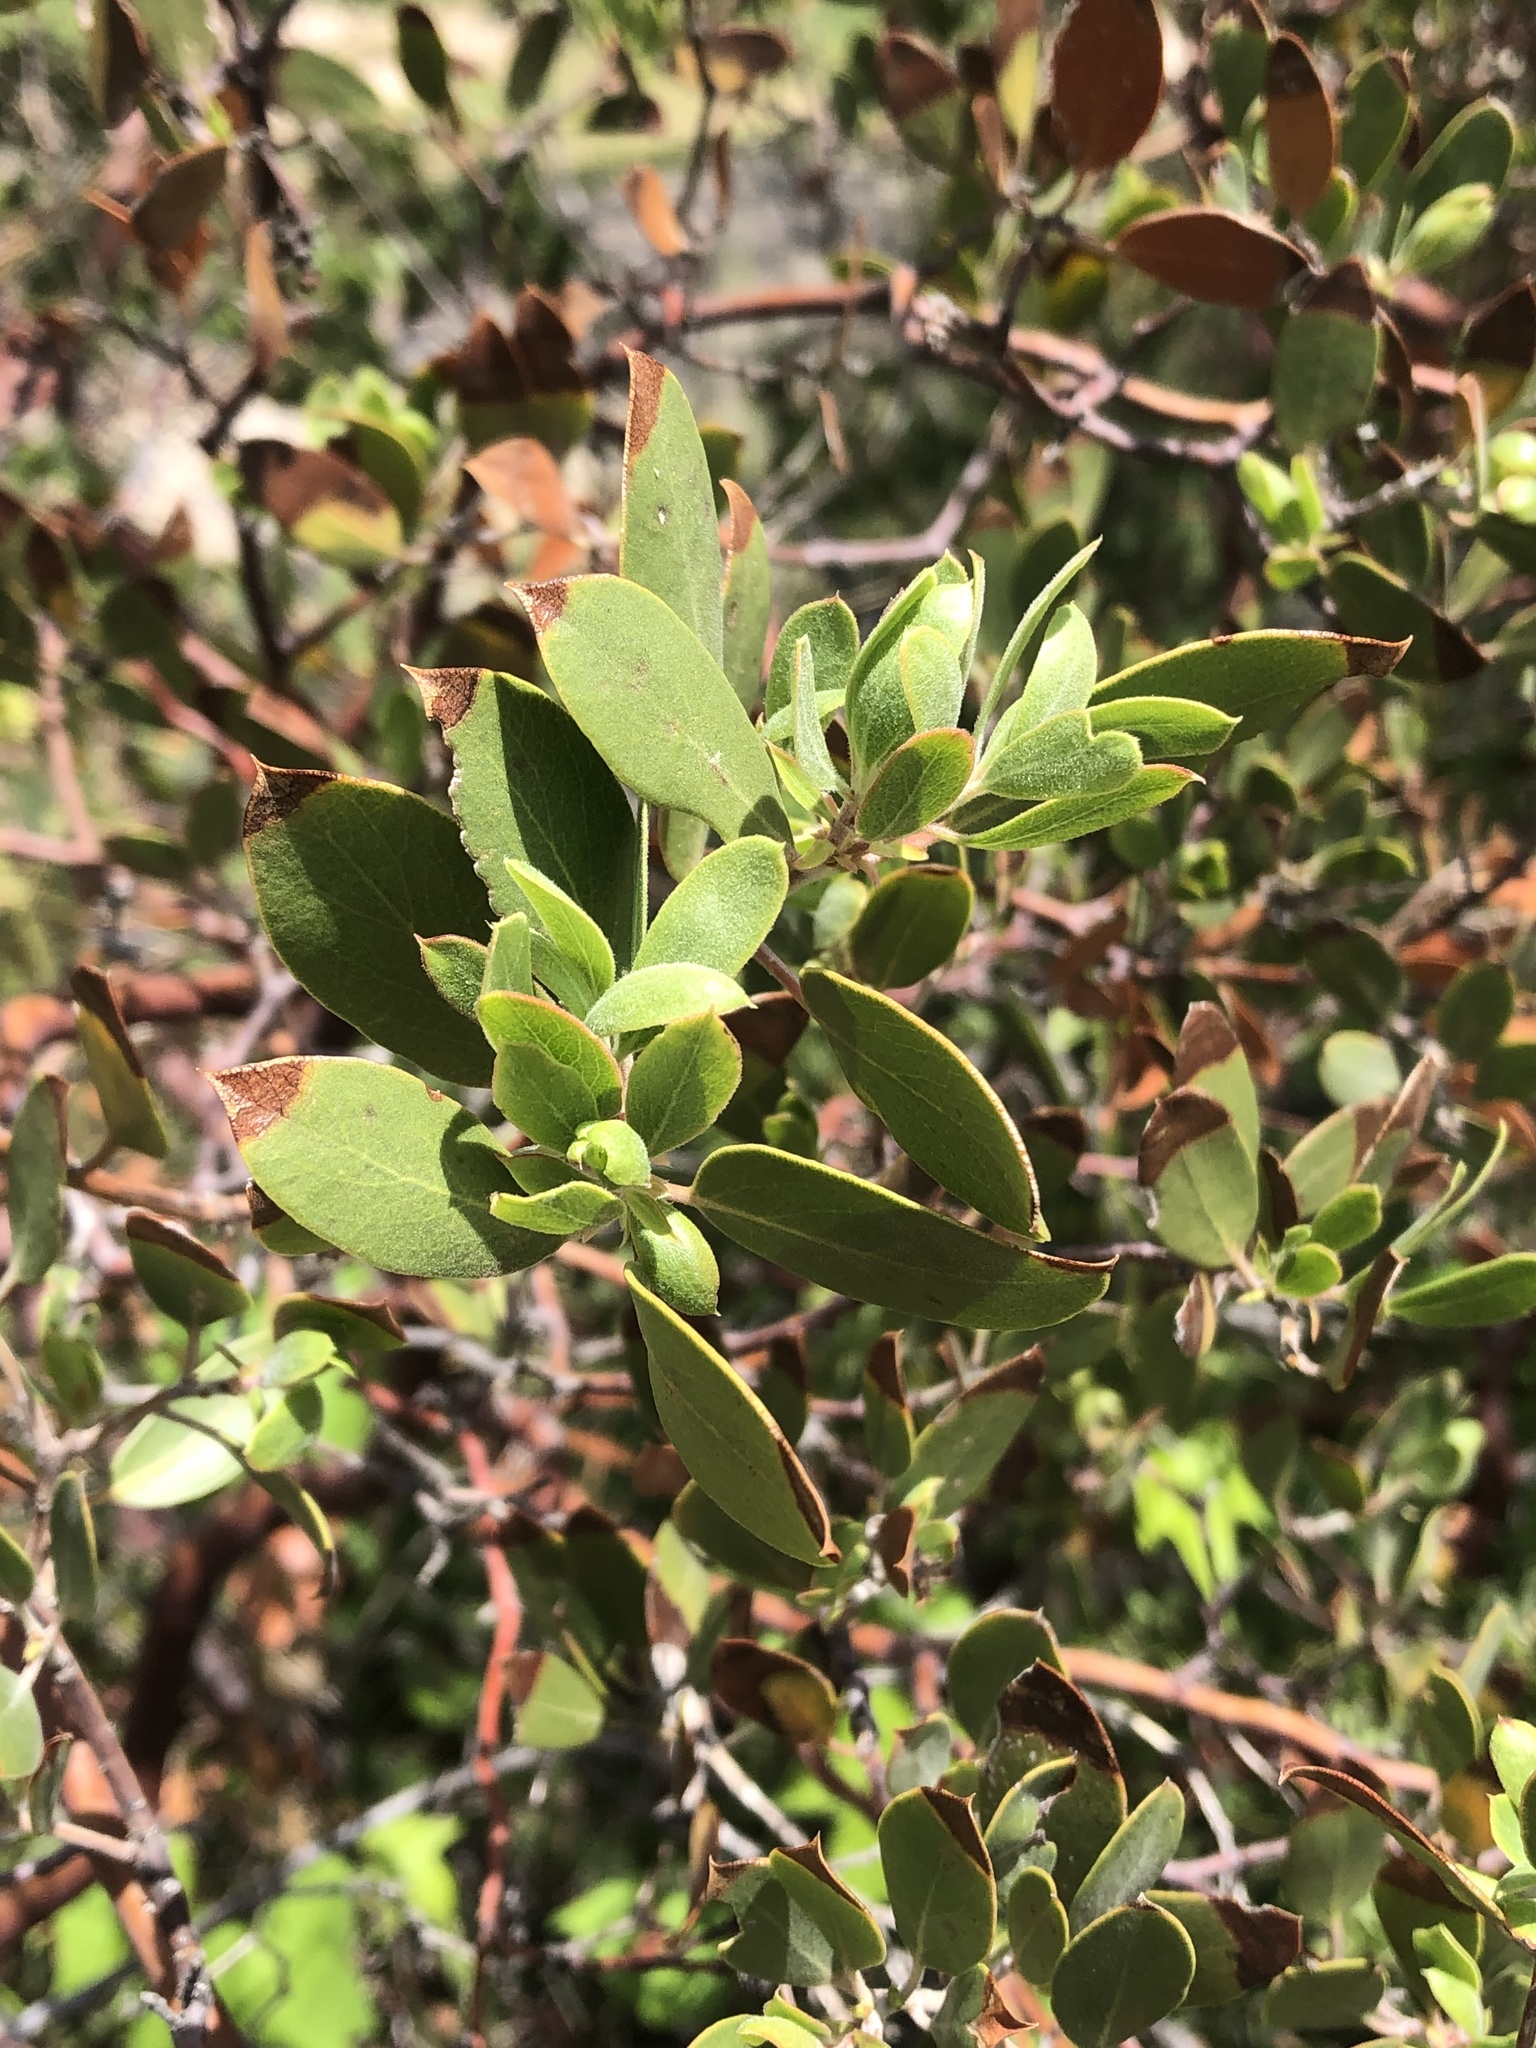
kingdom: Plantae
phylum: Tracheophyta
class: Magnoliopsida
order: Ericales
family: Ericaceae
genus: Arctostaphylos
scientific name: Arctostaphylos pungens
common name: Mexican manzanita
